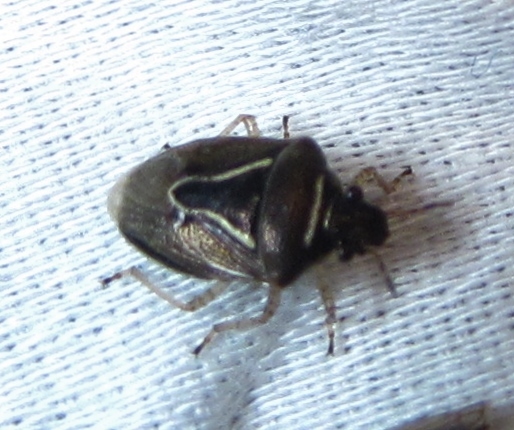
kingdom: Animalia
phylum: Arthropoda
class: Insecta
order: Hemiptera
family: Pentatomidae
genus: Mormidea
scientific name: Mormidea lugens
